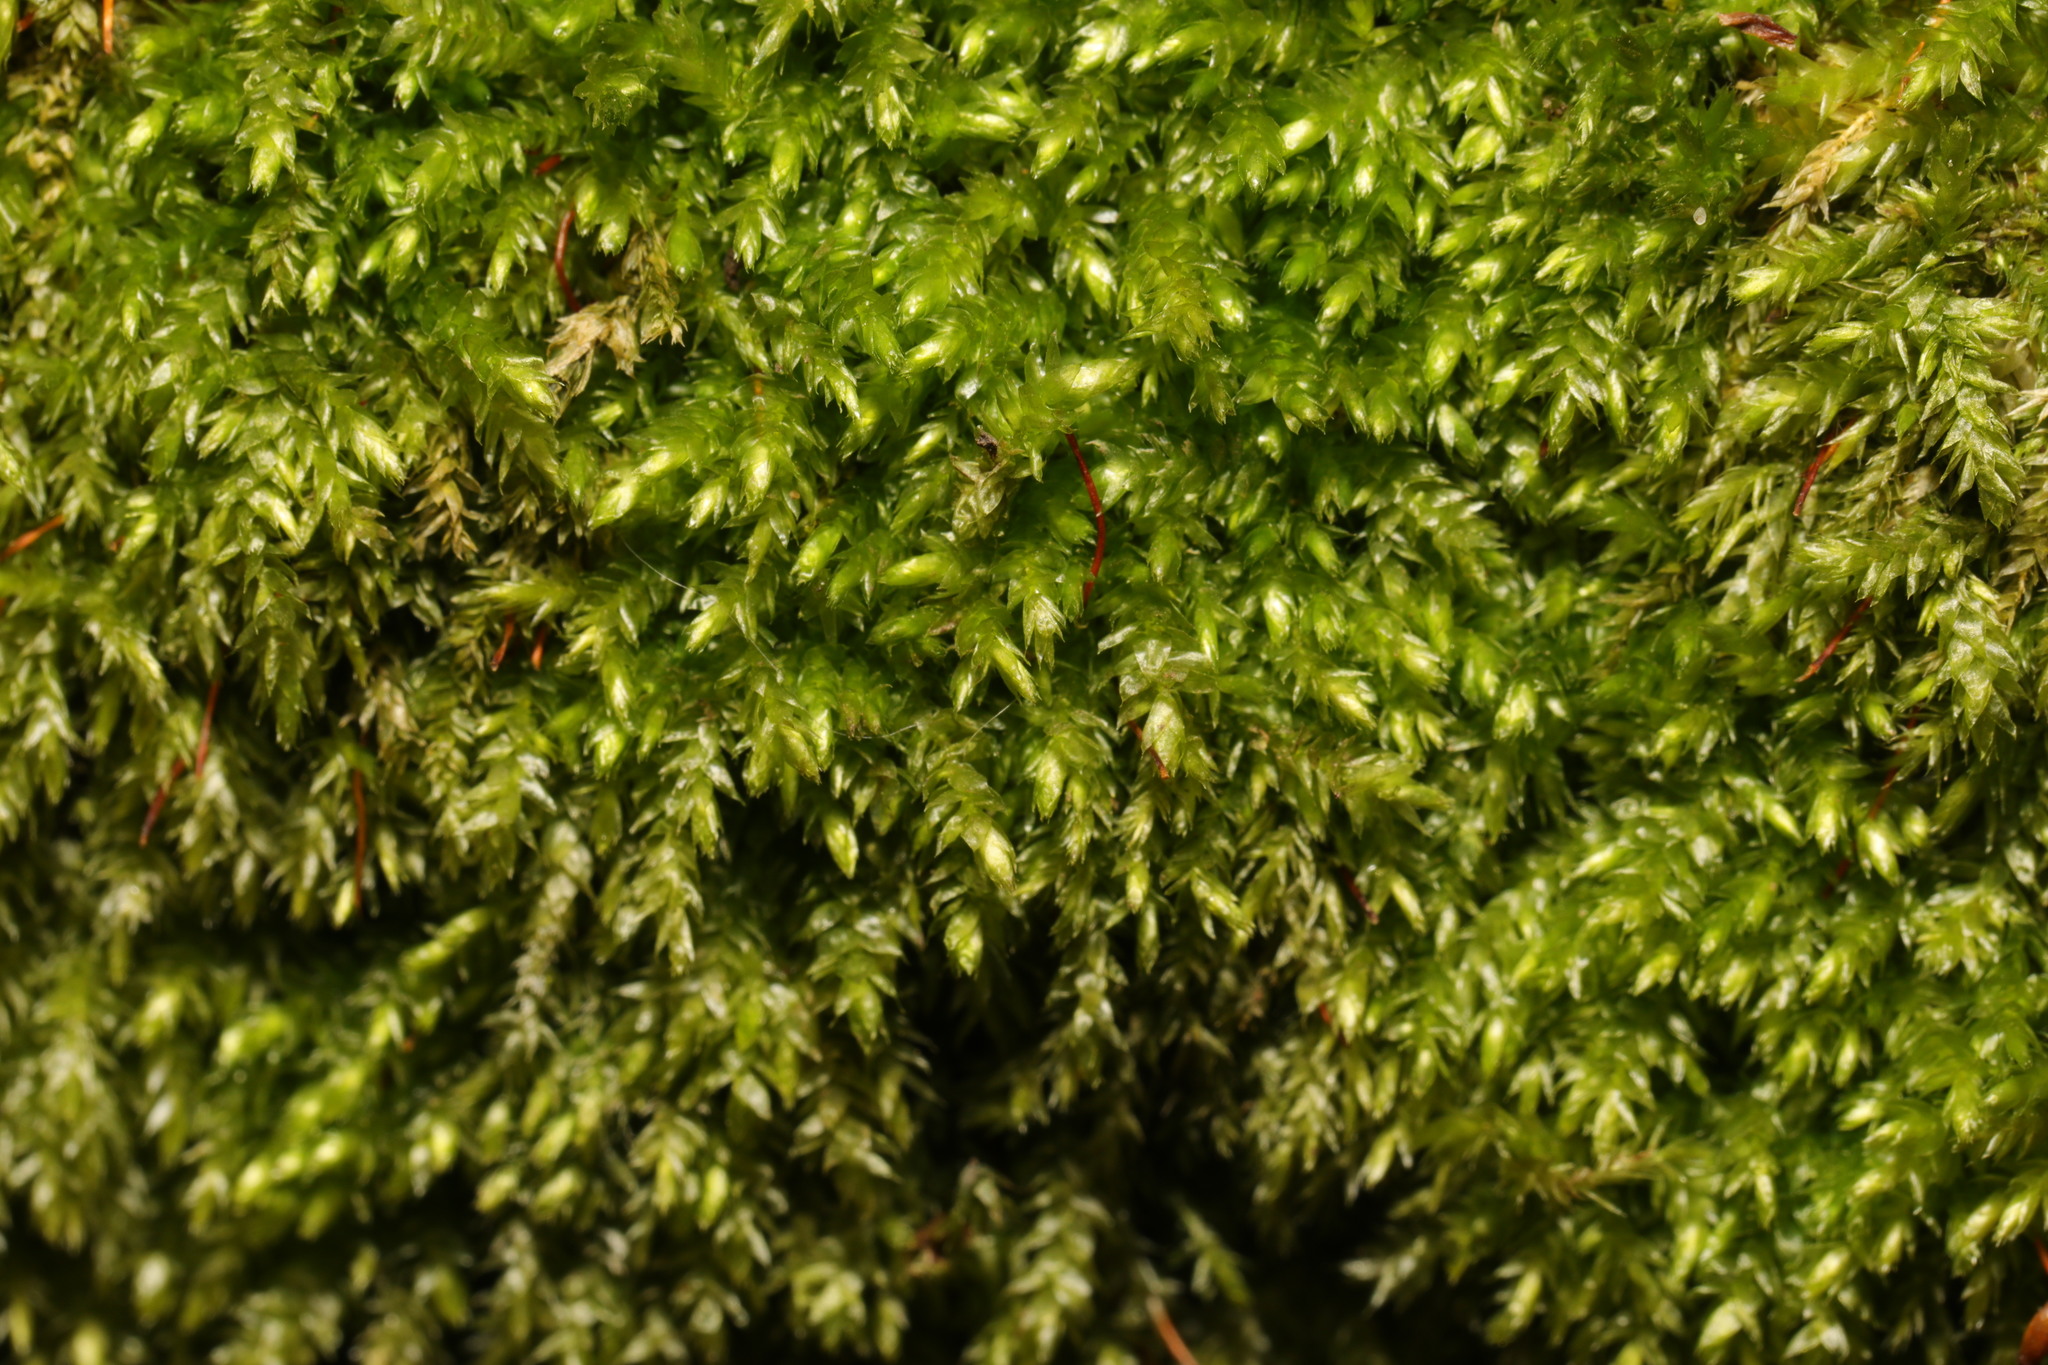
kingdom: Plantae
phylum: Bryophyta
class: Bryopsida
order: Hypnales
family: Brachytheciaceae
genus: Rhynchostegium
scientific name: Rhynchostegium confertum
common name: Clustered feather-moss
